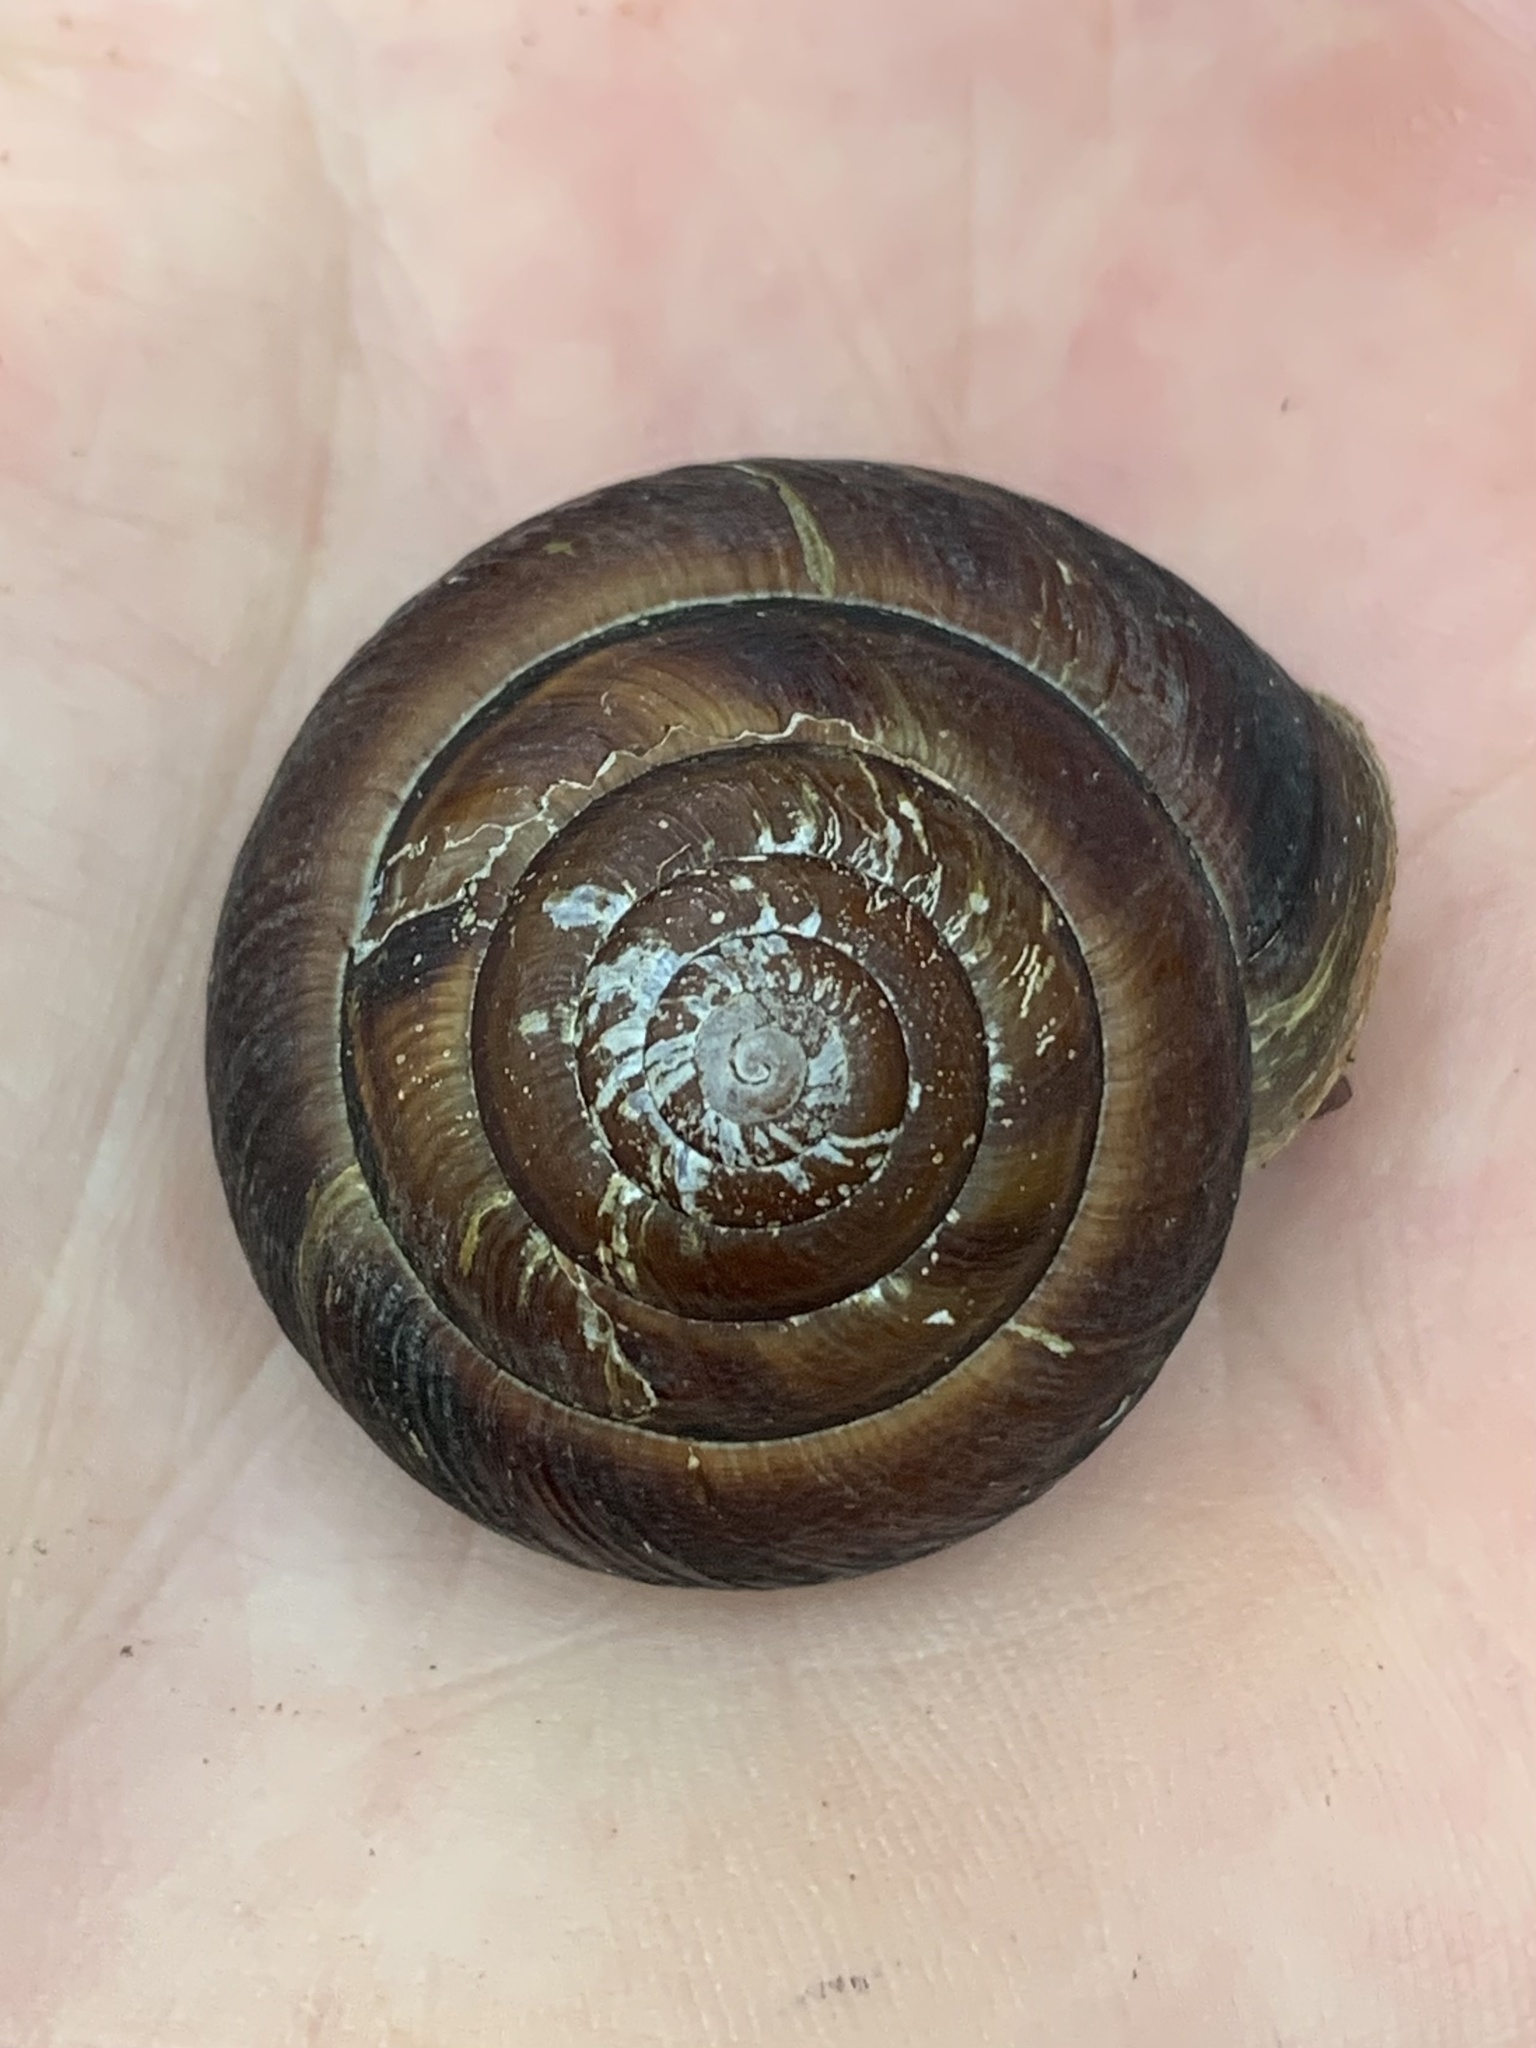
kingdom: Animalia
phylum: Mollusca
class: Gastropoda
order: Stylommatophora
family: Xanthonychidae
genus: Monadenia
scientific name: Monadenia fidelis
